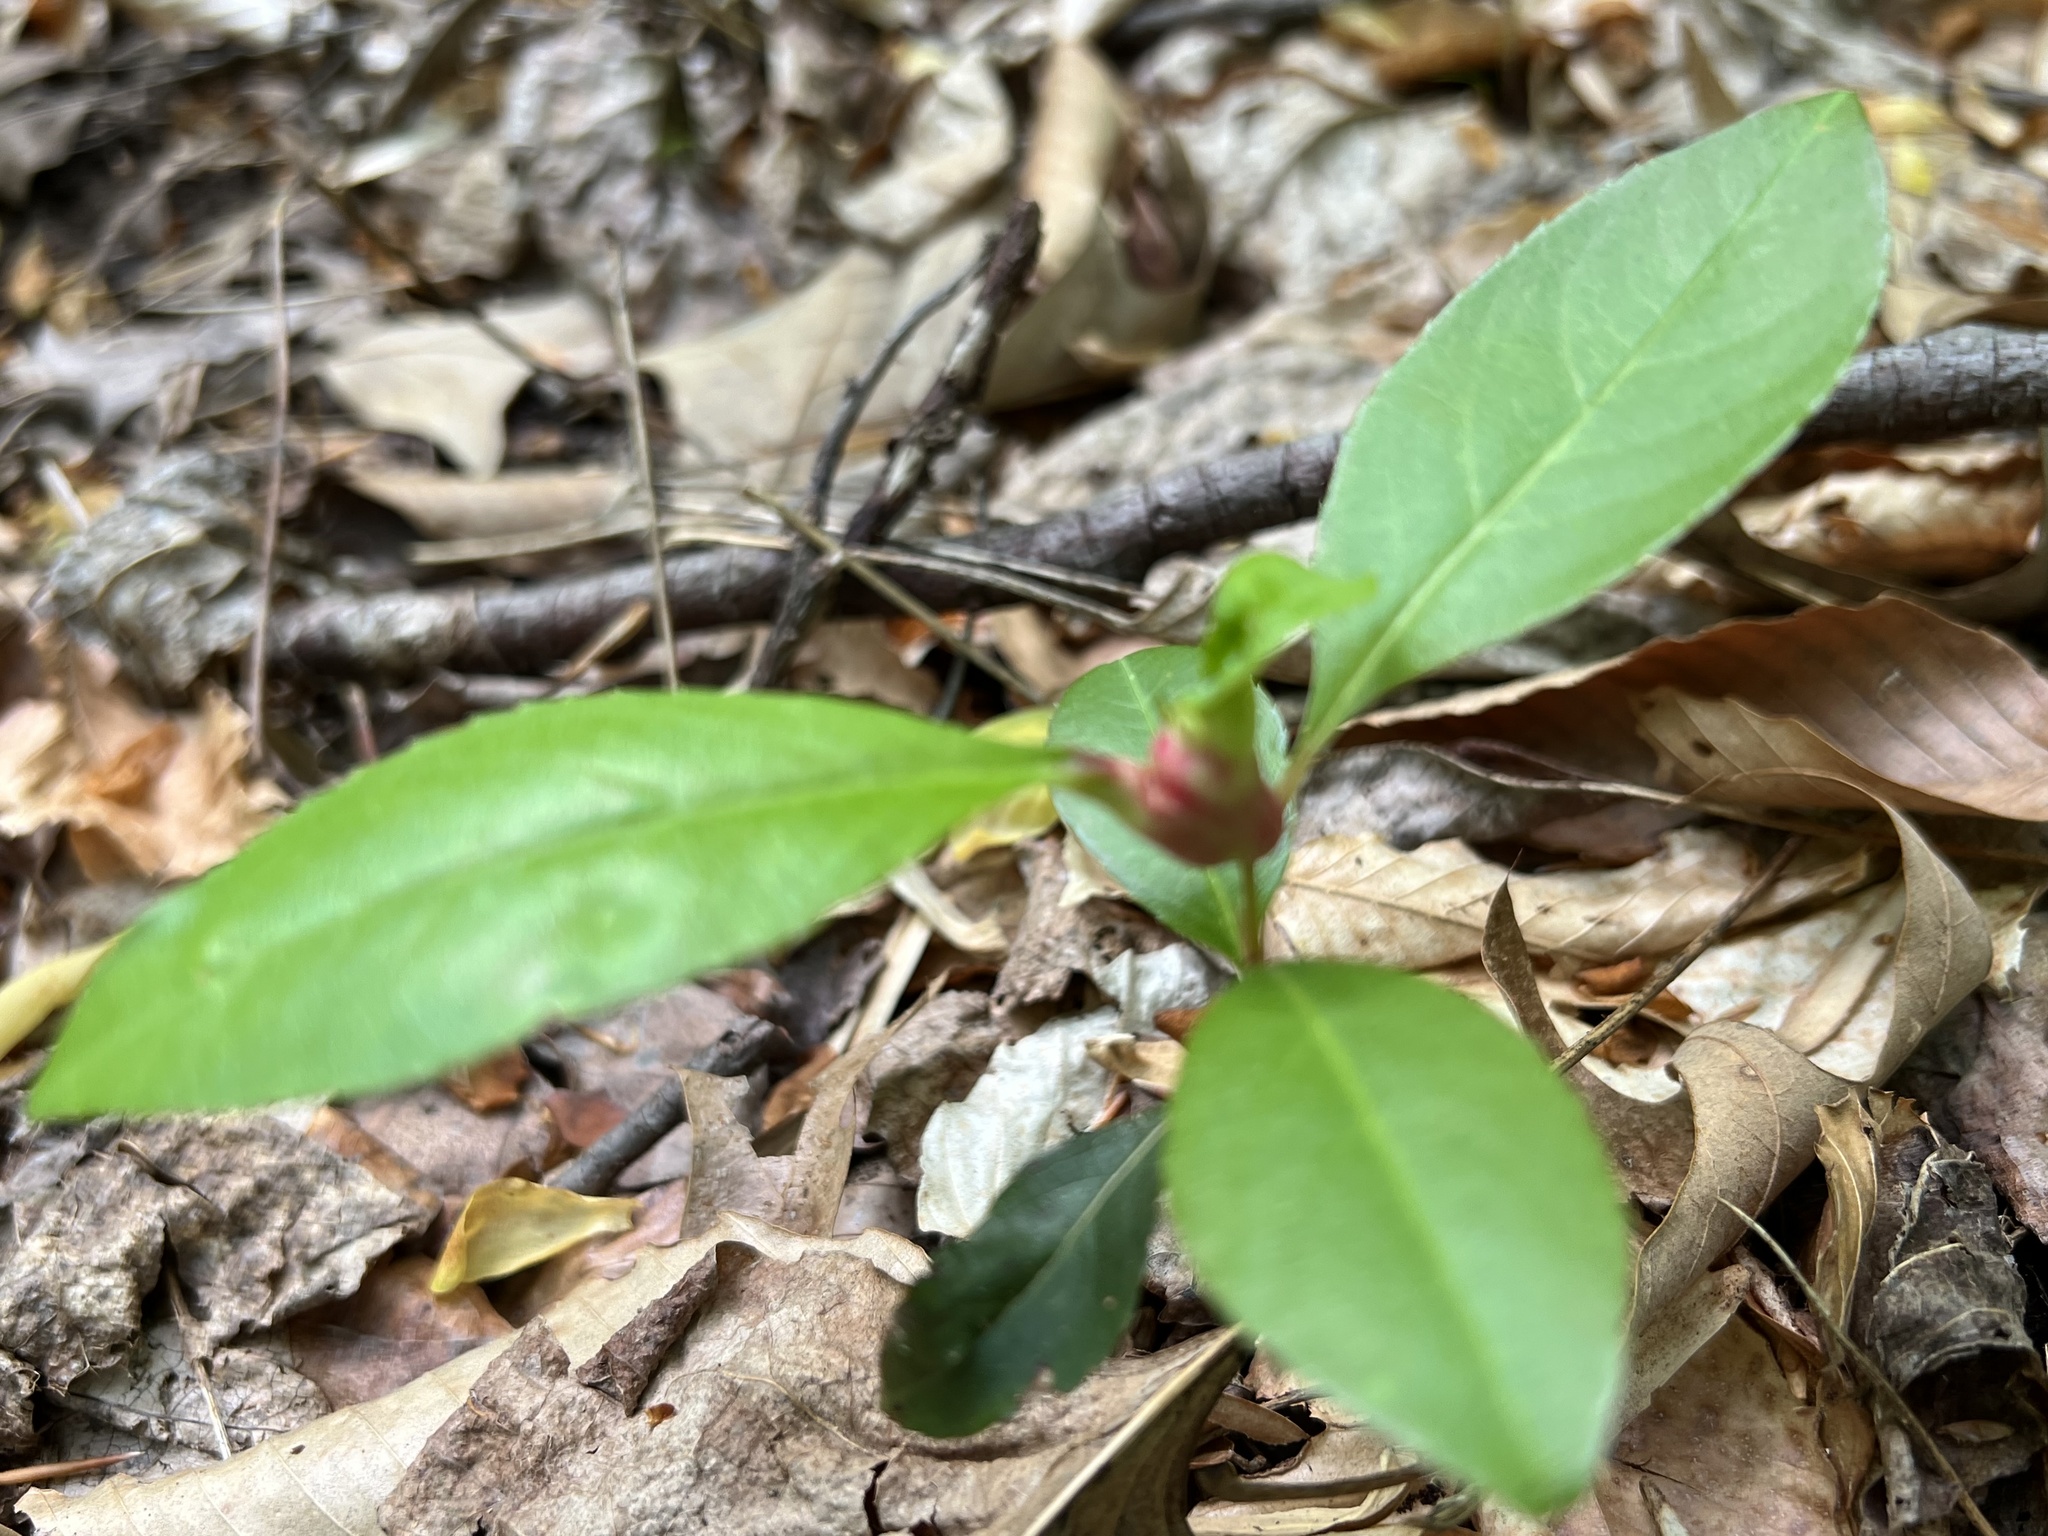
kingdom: Animalia
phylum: Arthropoda
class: Insecta
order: Diptera
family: Cecidomyiidae
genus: Contarinia
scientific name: Contarinia cerasiserotinae
